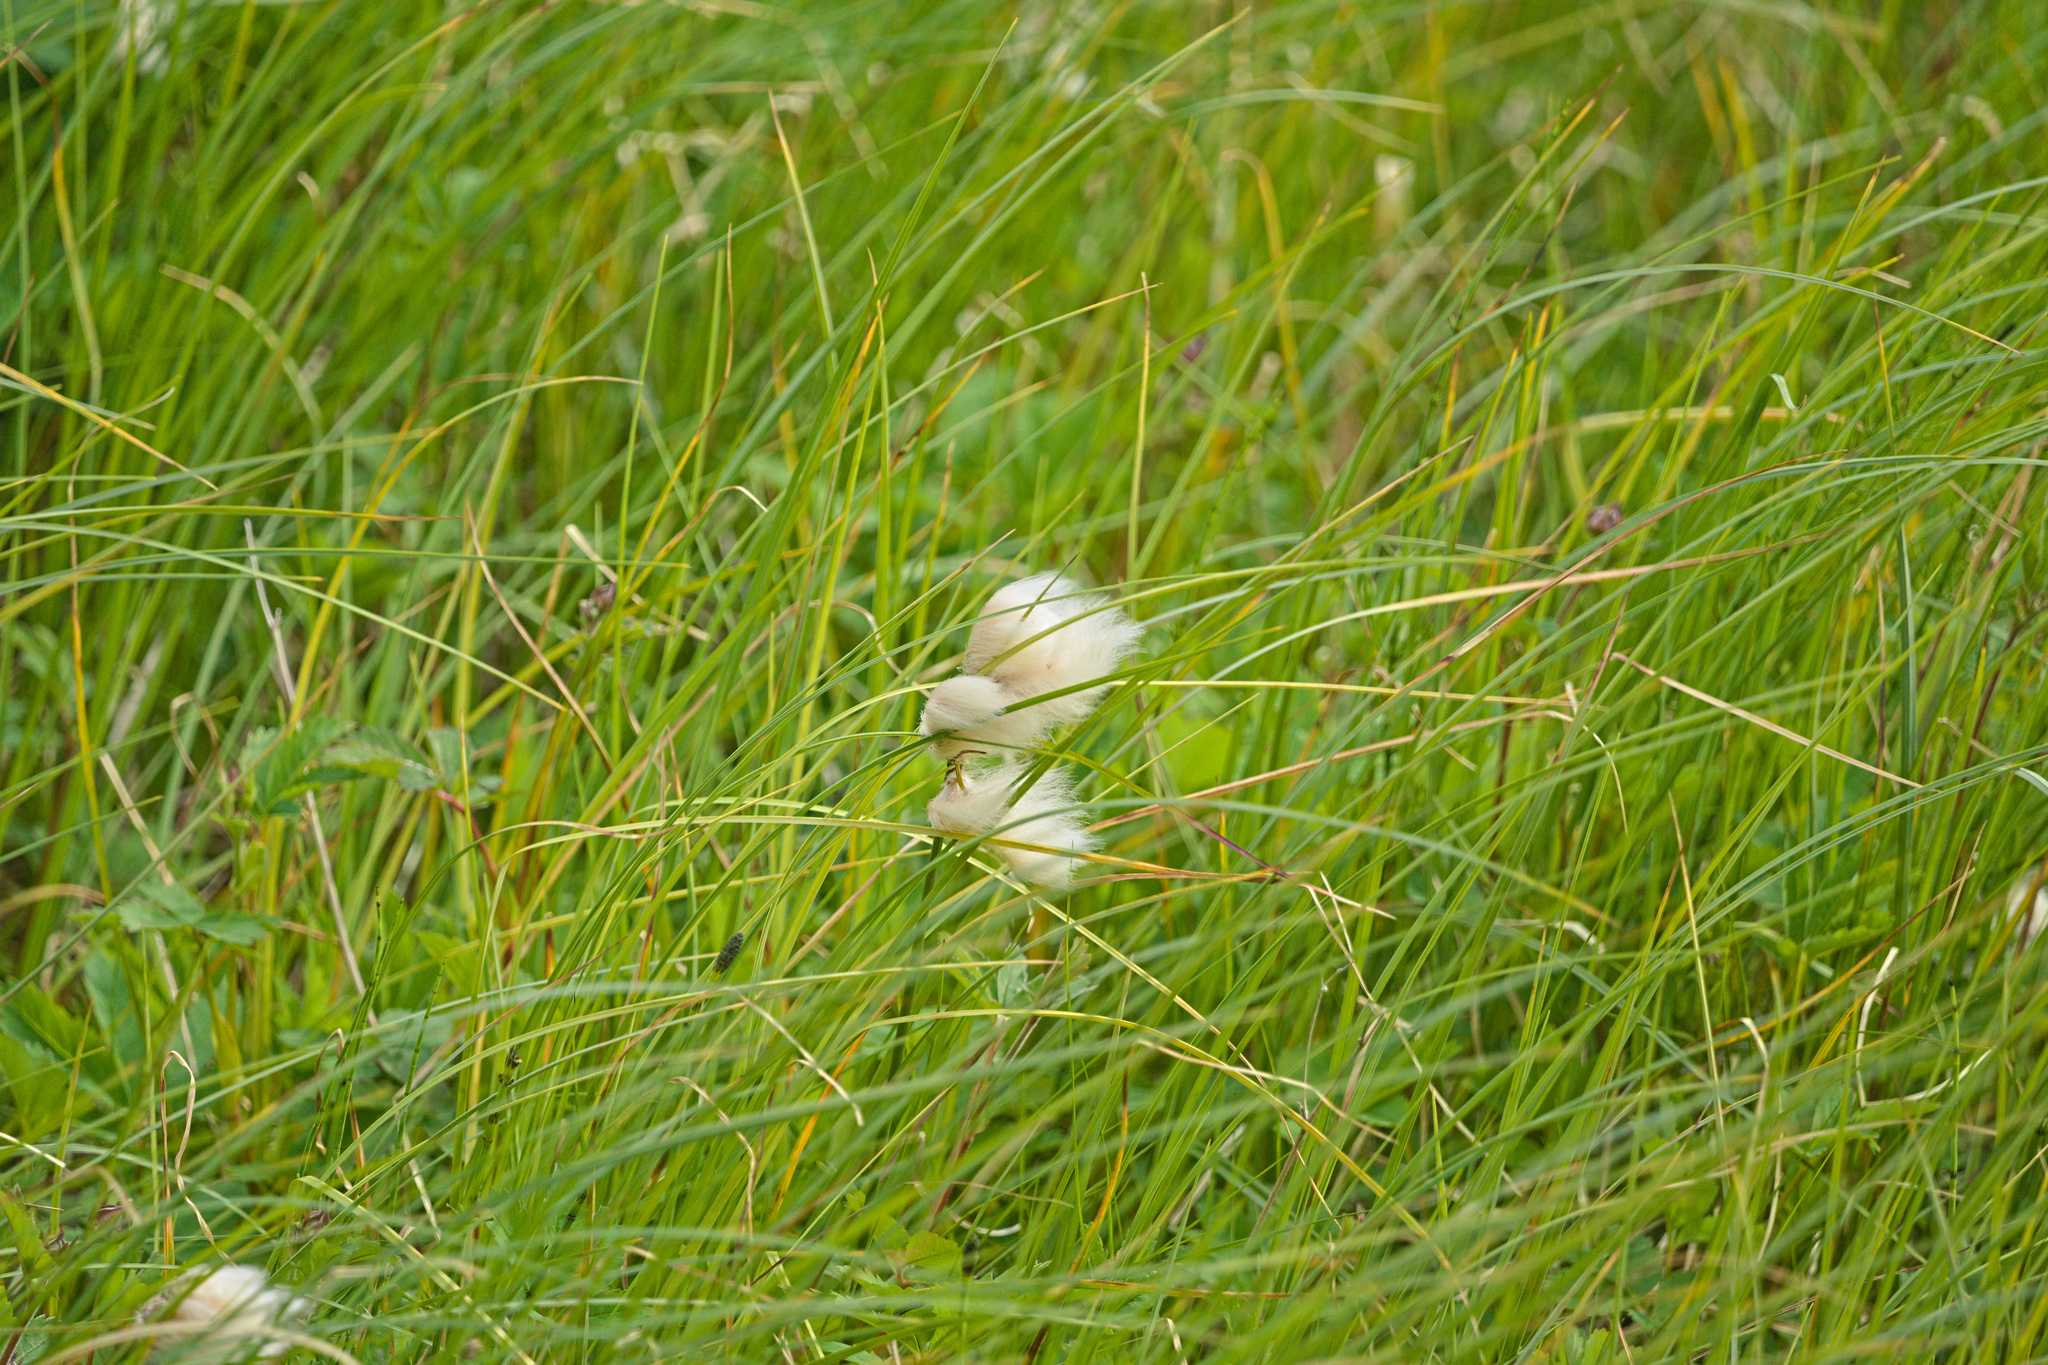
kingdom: Plantae
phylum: Tracheophyta
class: Liliopsida
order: Poales
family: Cyperaceae
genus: Eriophorum
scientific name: Eriophorum angustifolium
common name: Common cottongrass
